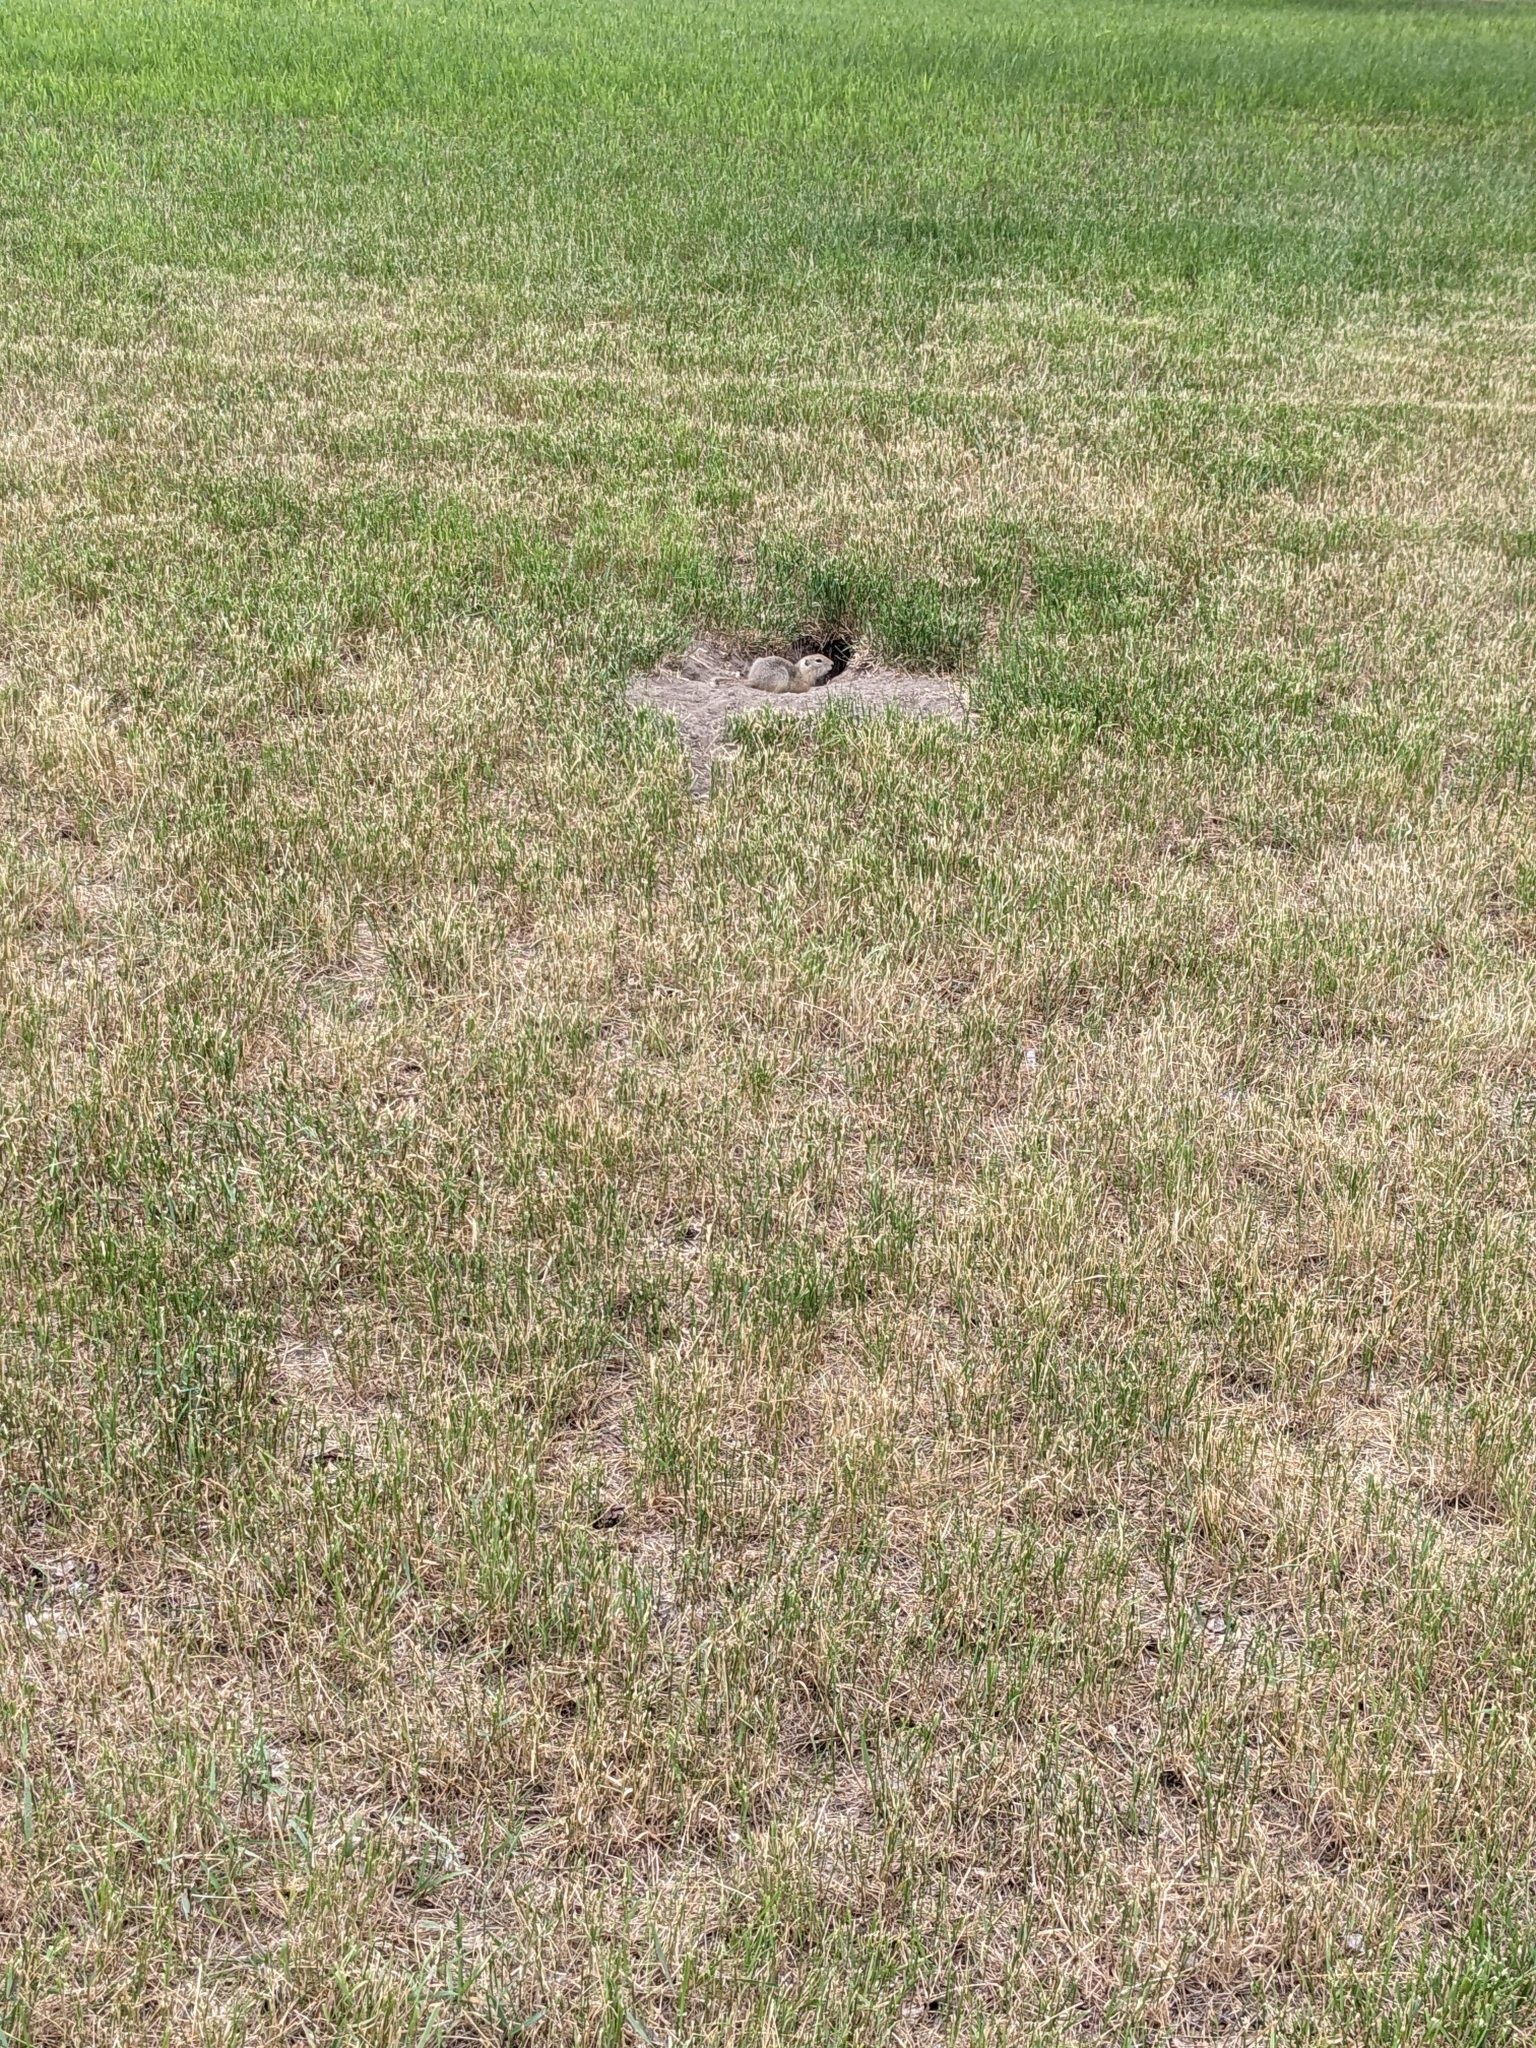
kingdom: Animalia
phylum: Chordata
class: Mammalia
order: Rodentia
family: Sciuridae
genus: Urocitellus
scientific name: Urocitellus richardsonii
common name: Richardson's ground squirrel
